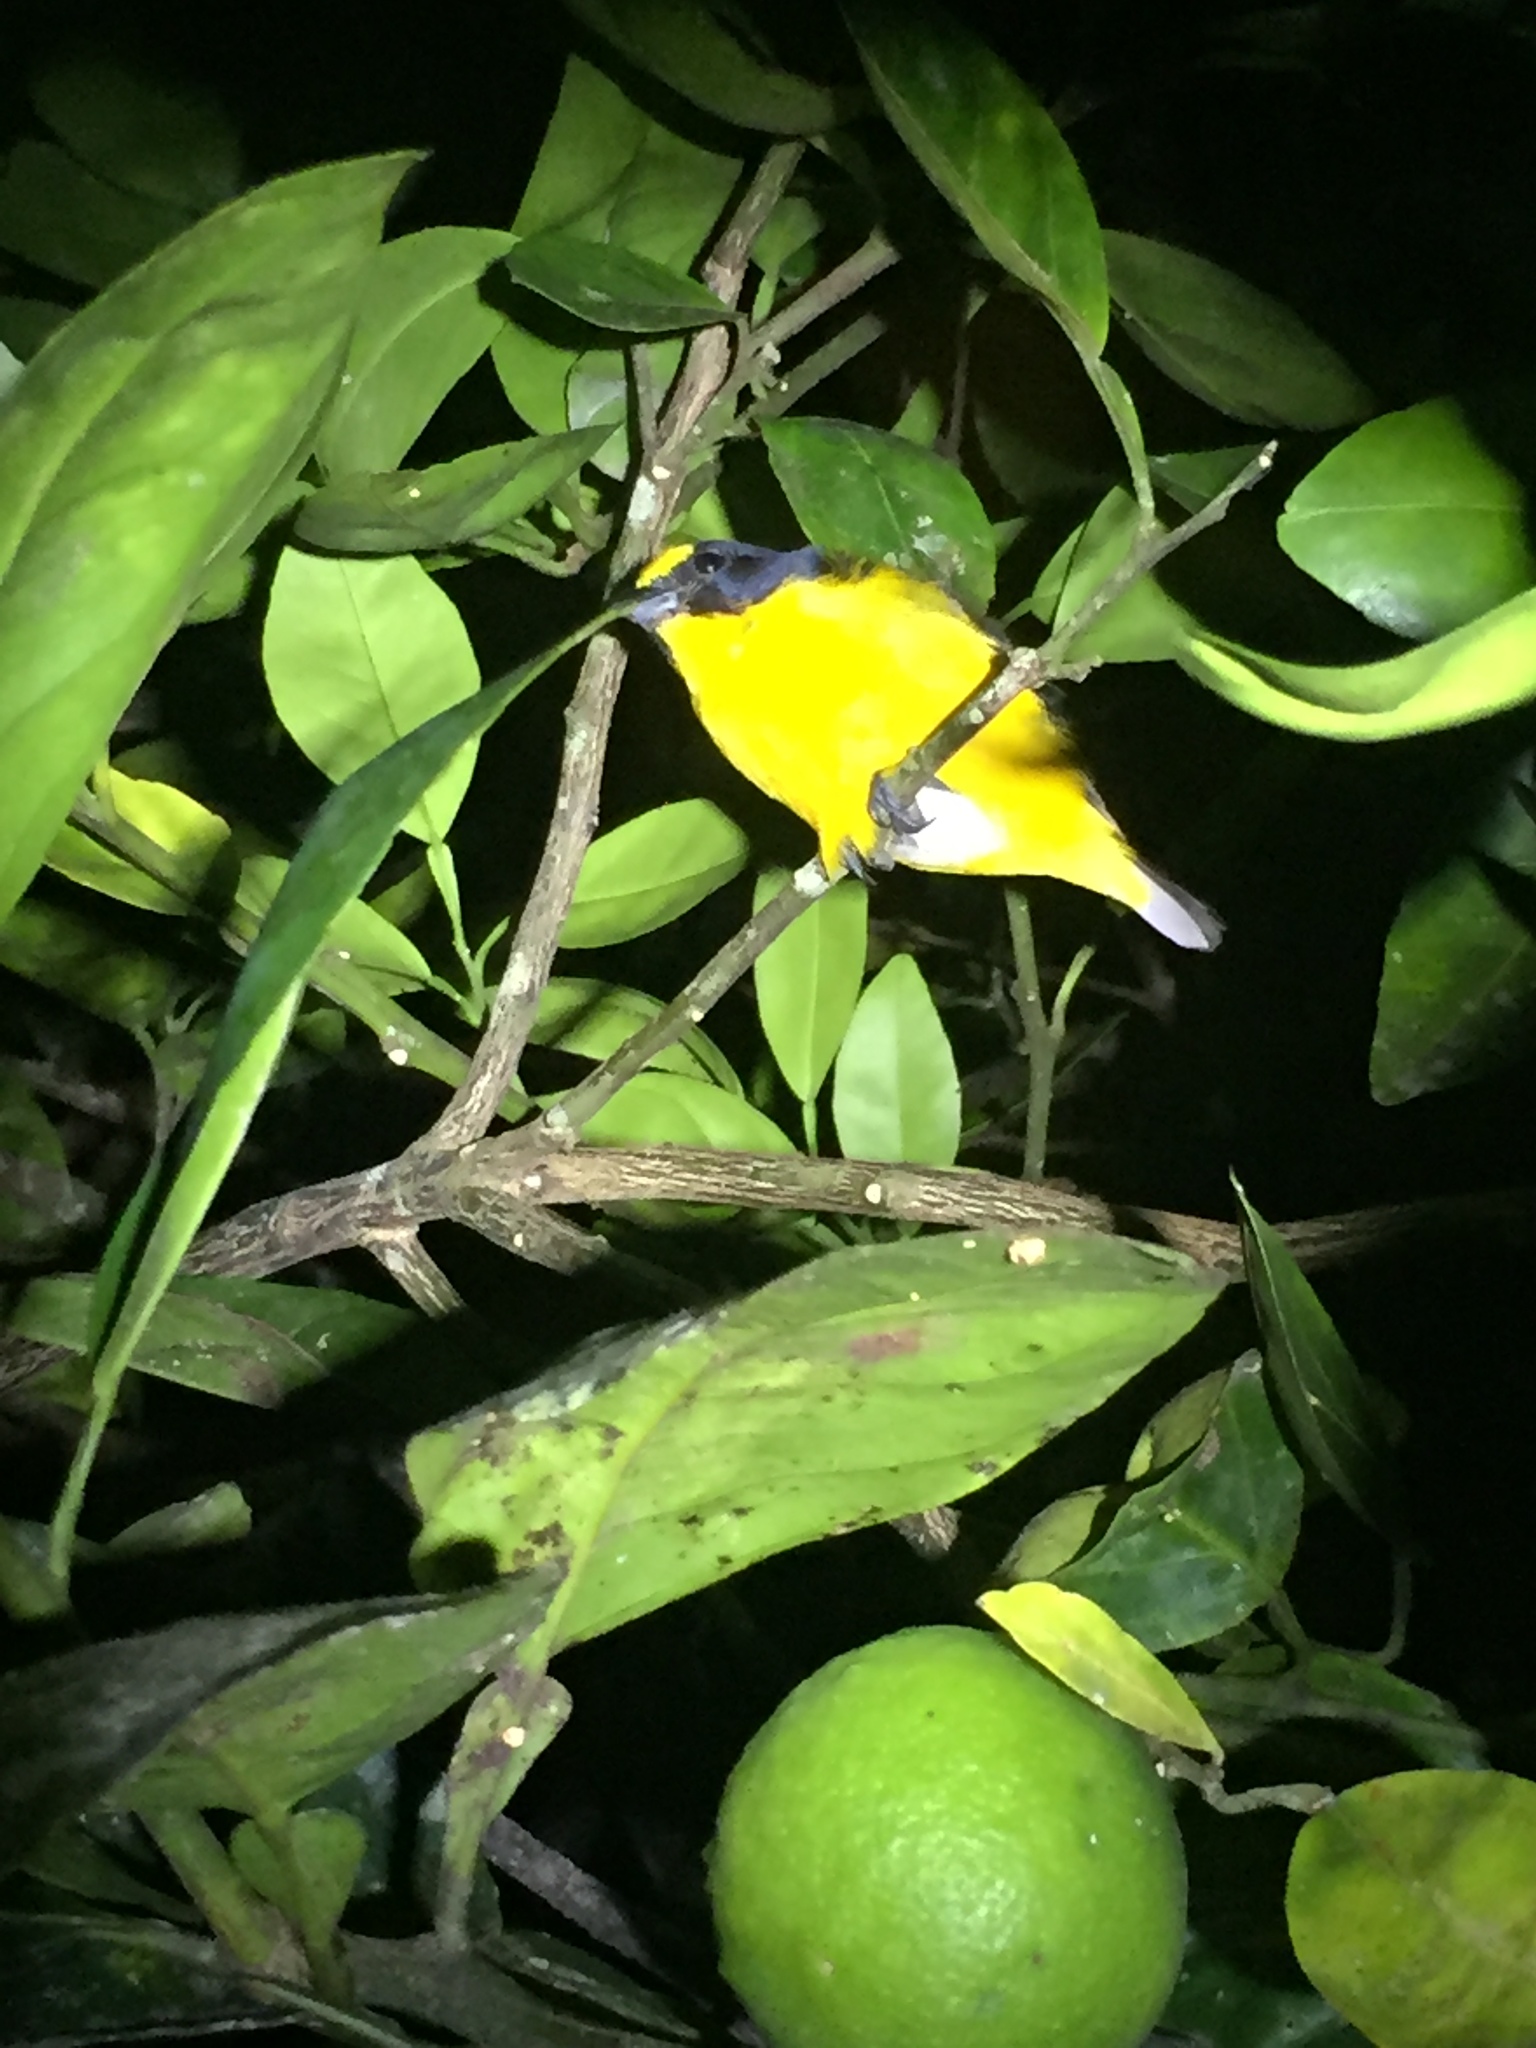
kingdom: Animalia
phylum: Chordata
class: Aves
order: Passeriformes
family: Fringillidae
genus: Euphonia
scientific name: Euphonia hirundinacea
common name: Yellow-throated euphonia
